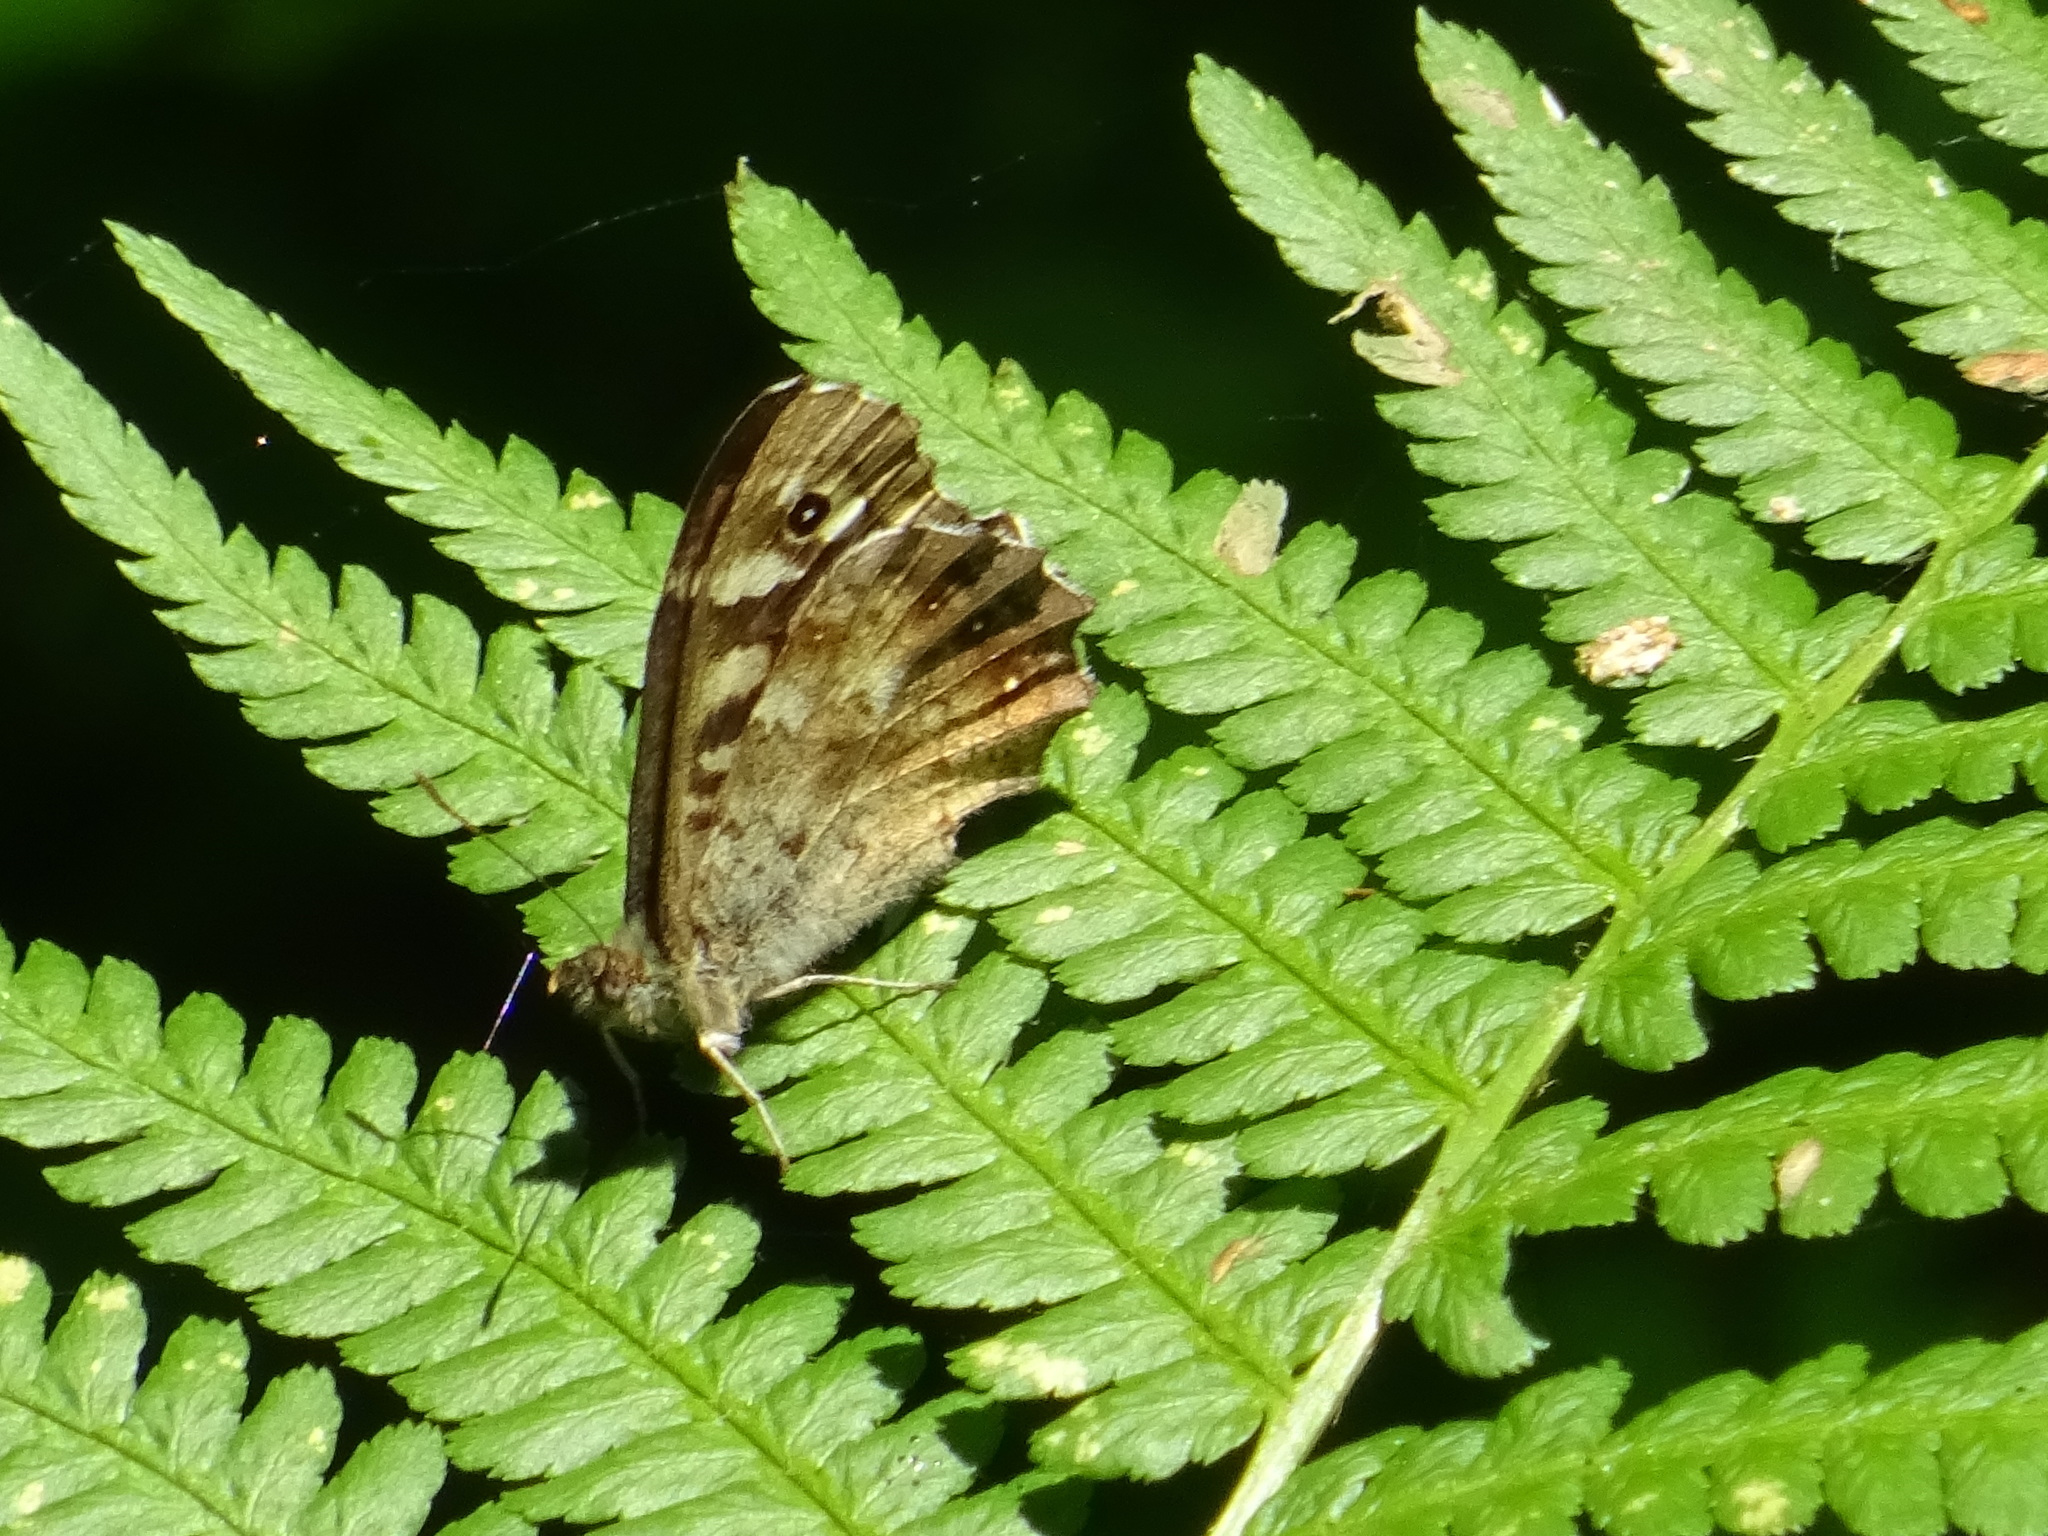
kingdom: Animalia
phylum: Arthropoda
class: Insecta
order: Lepidoptera
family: Nymphalidae
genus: Pararge
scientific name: Pararge aegeria
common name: Speckled wood
